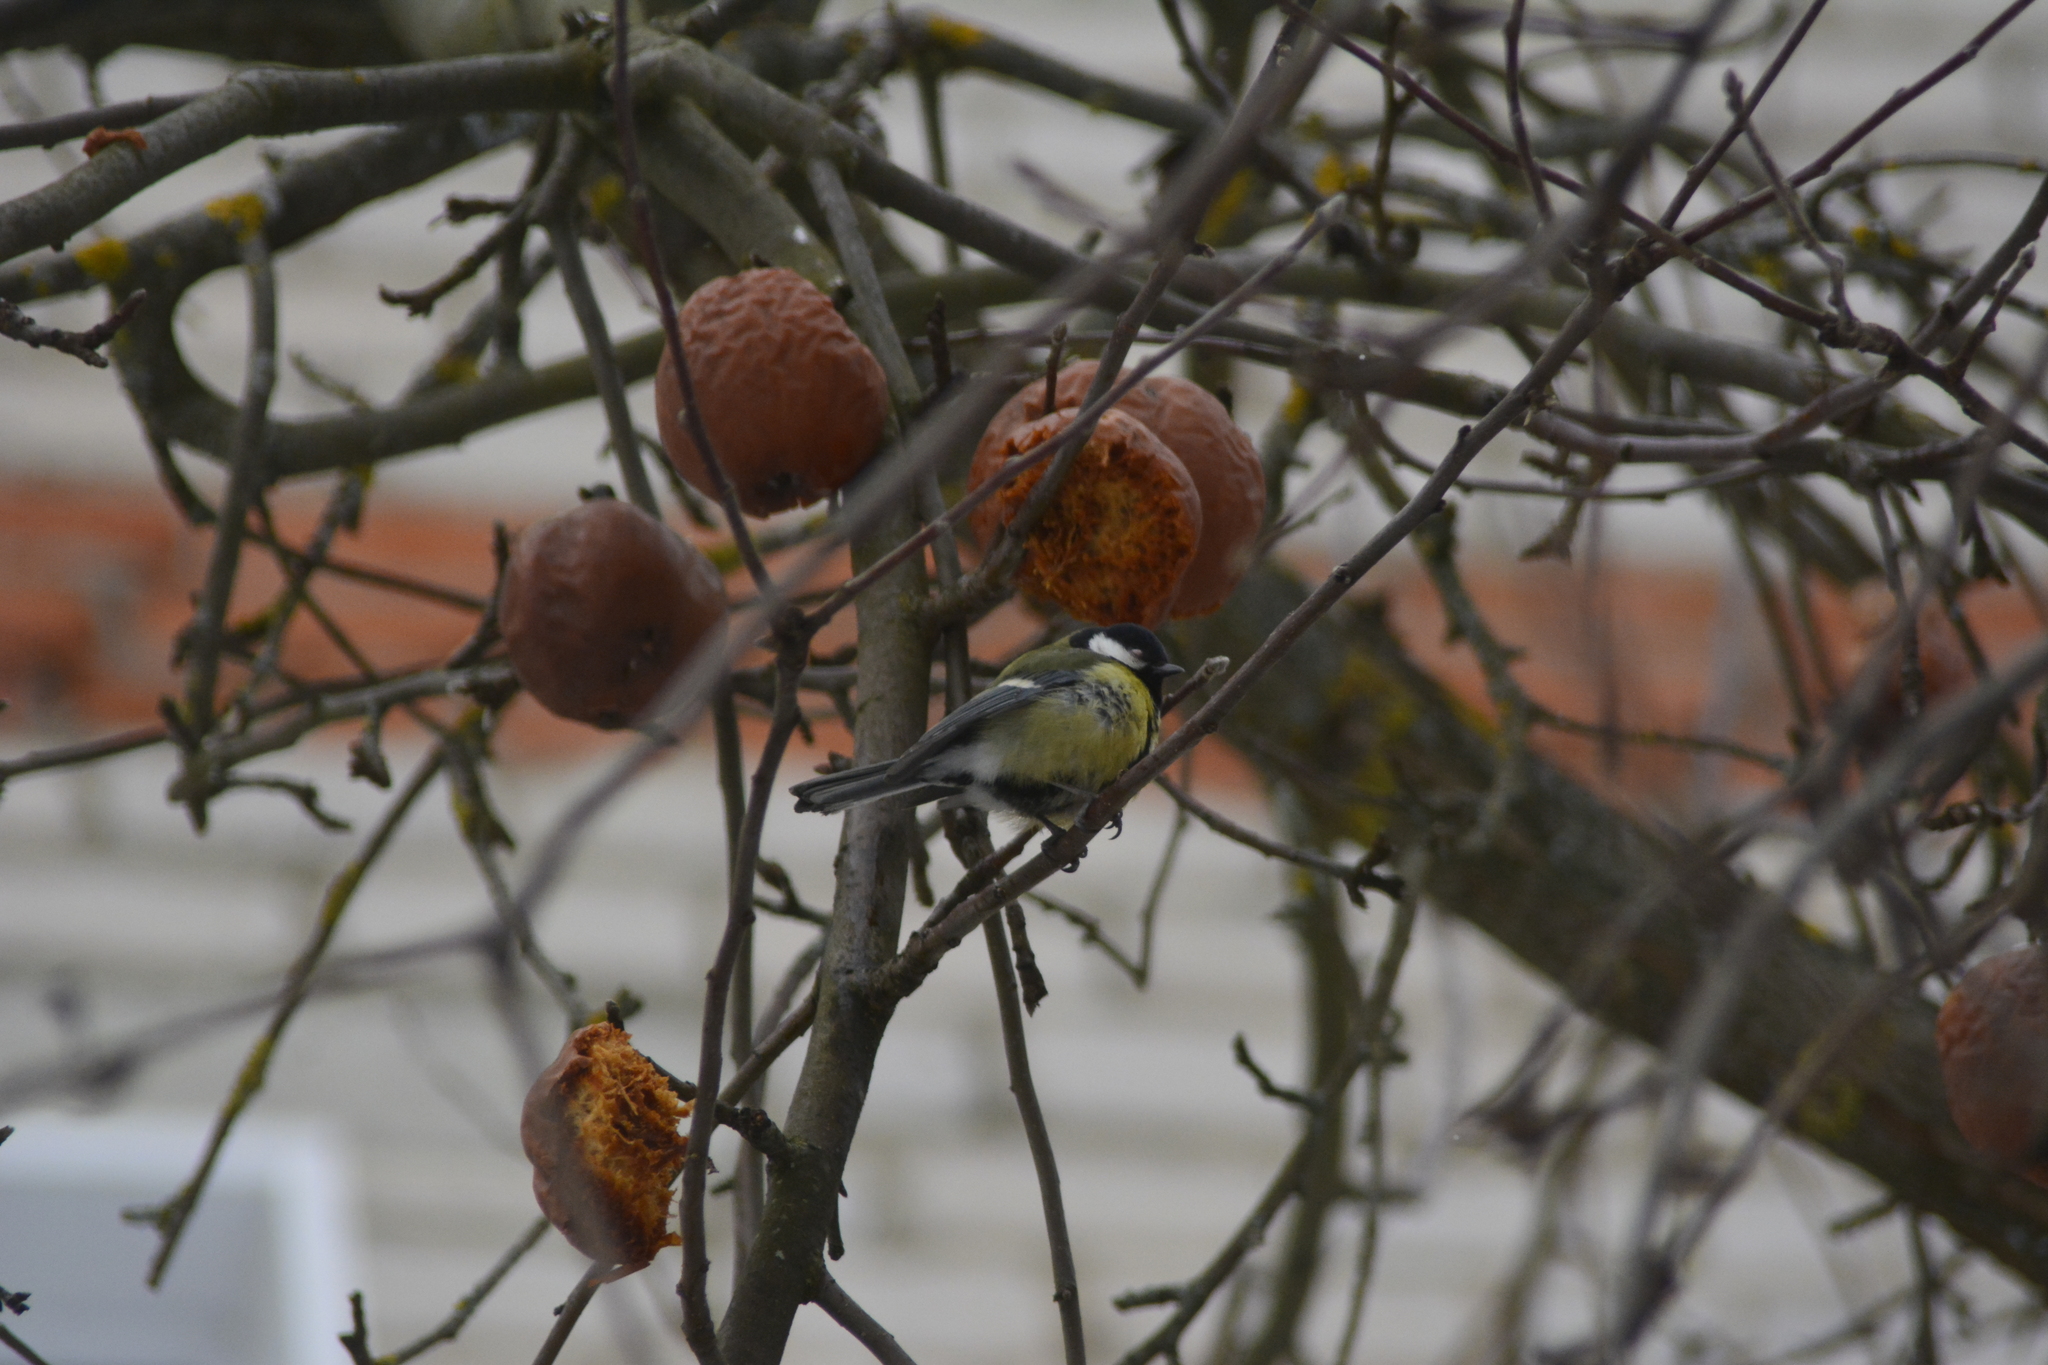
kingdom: Animalia
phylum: Chordata
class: Aves
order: Passeriformes
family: Paridae
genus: Parus
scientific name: Parus major
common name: Great tit
